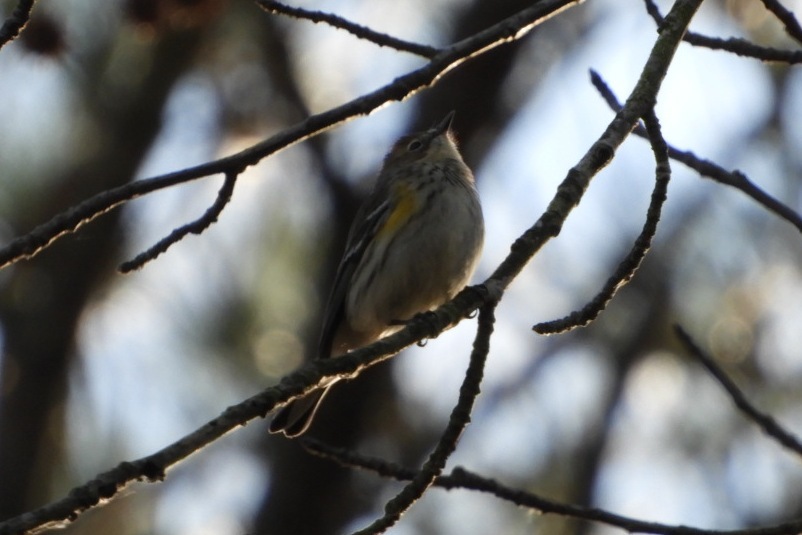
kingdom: Animalia
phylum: Chordata
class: Aves
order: Passeriformes
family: Parulidae
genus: Setophaga
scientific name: Setophaga coronata
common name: Myrtle warbler
